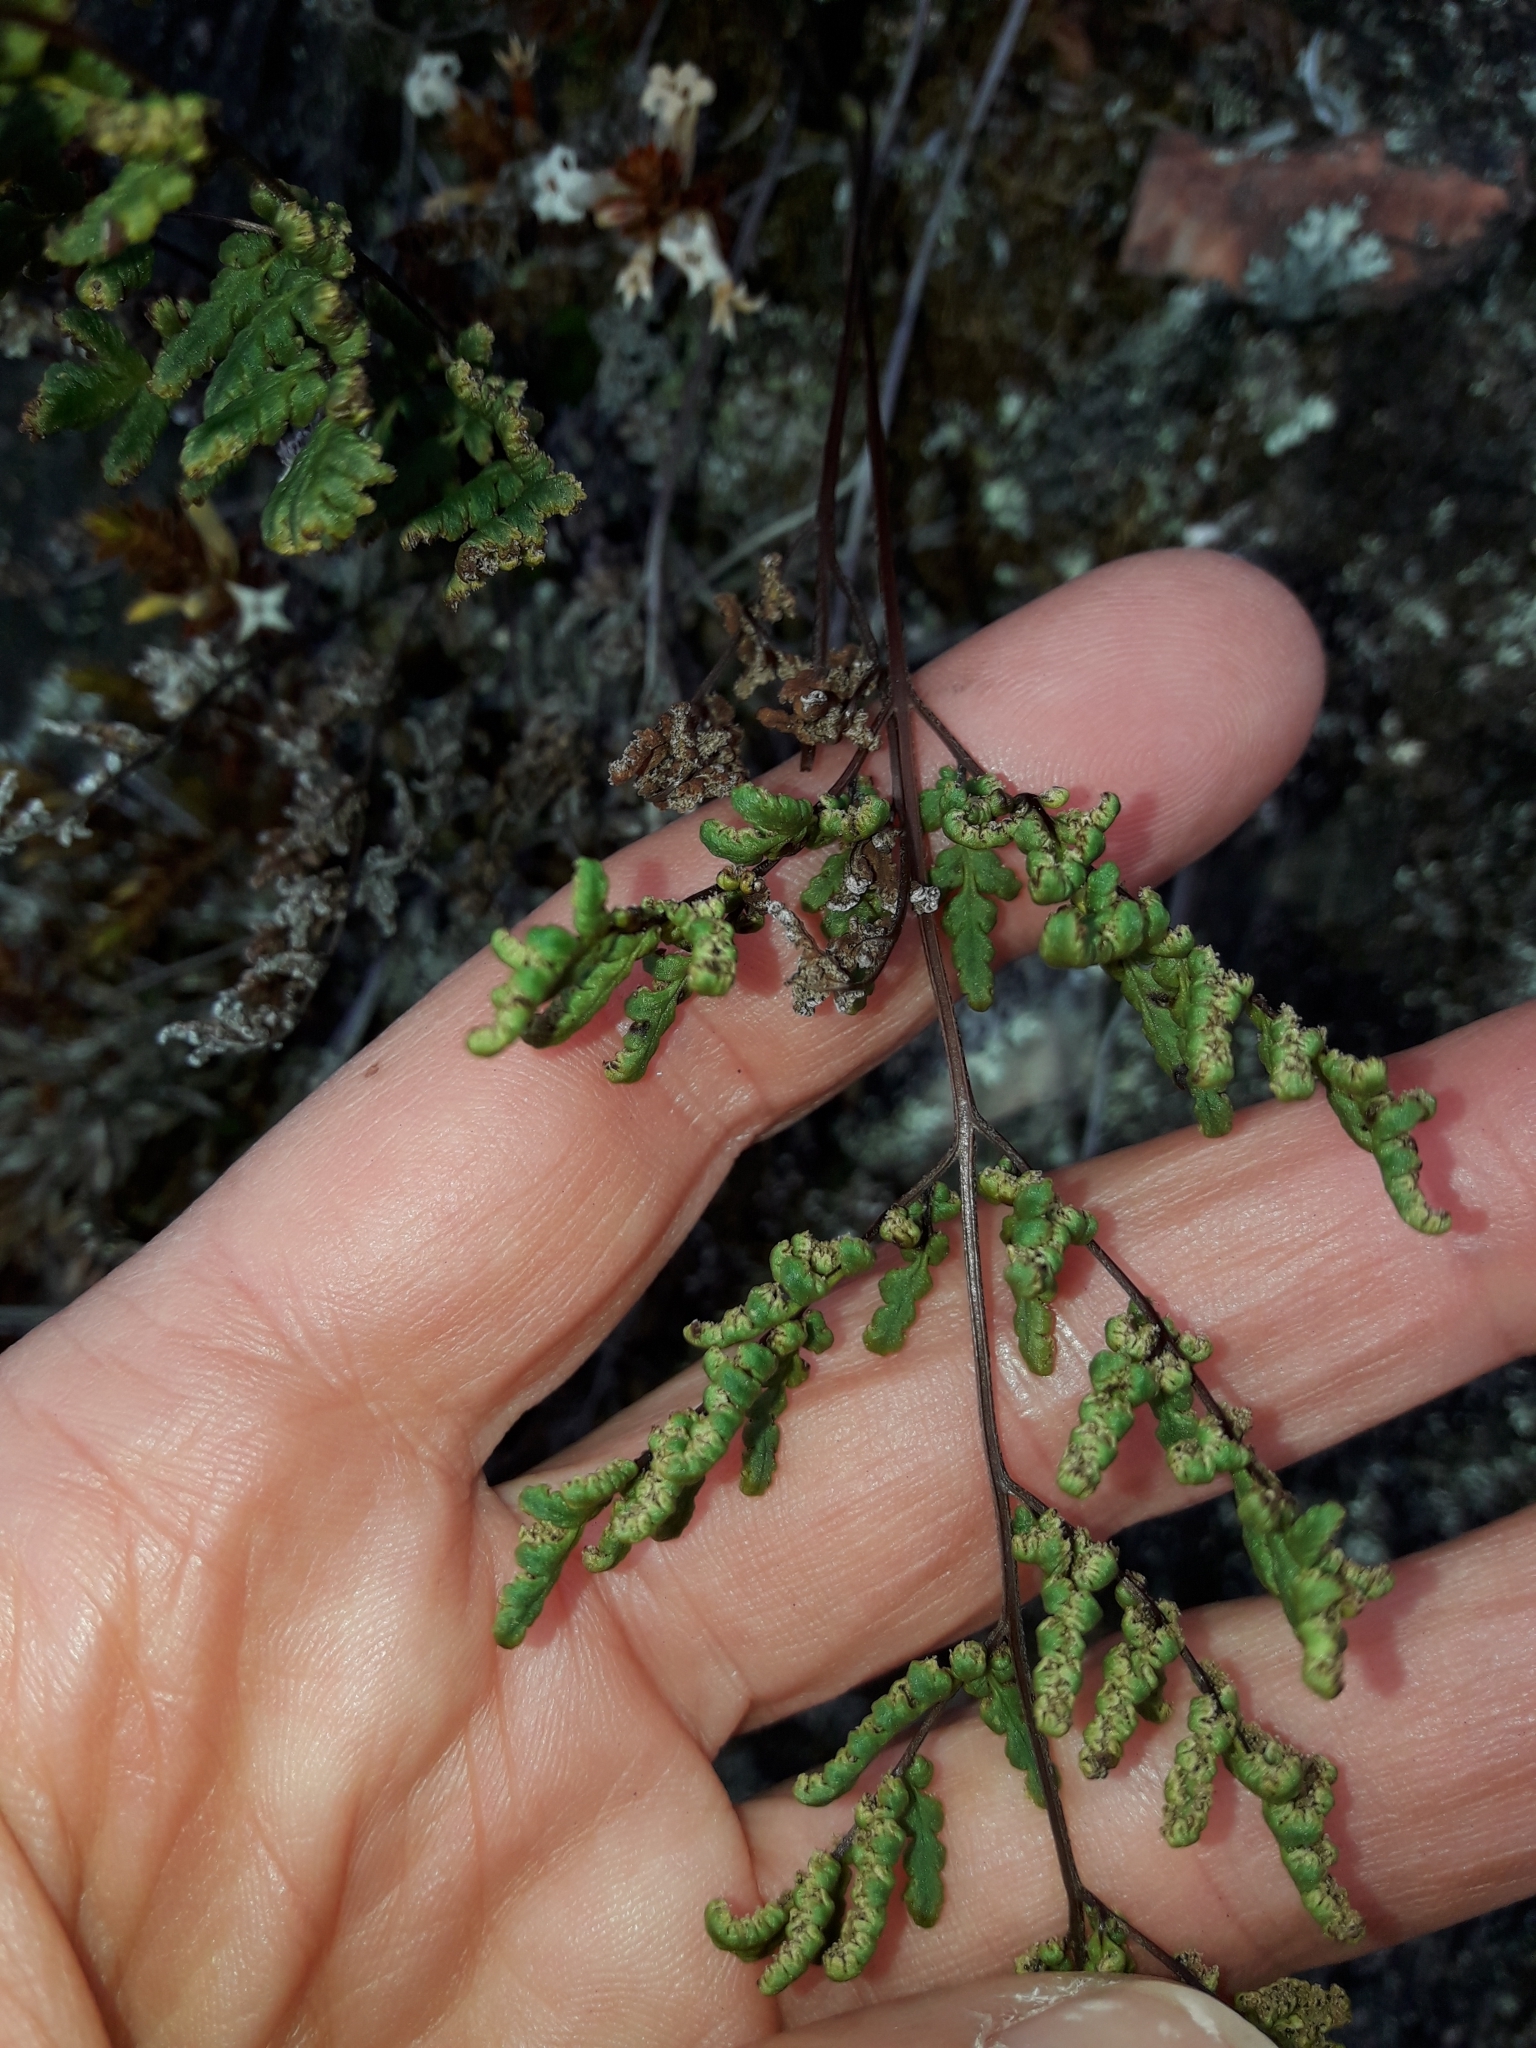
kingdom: Plantae
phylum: Tracheophyta
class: Polypodiopsida
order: Polypodiales
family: Pteridaceae
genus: Cheilanthes
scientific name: Cheilanthes sieberi
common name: Mulga fern
